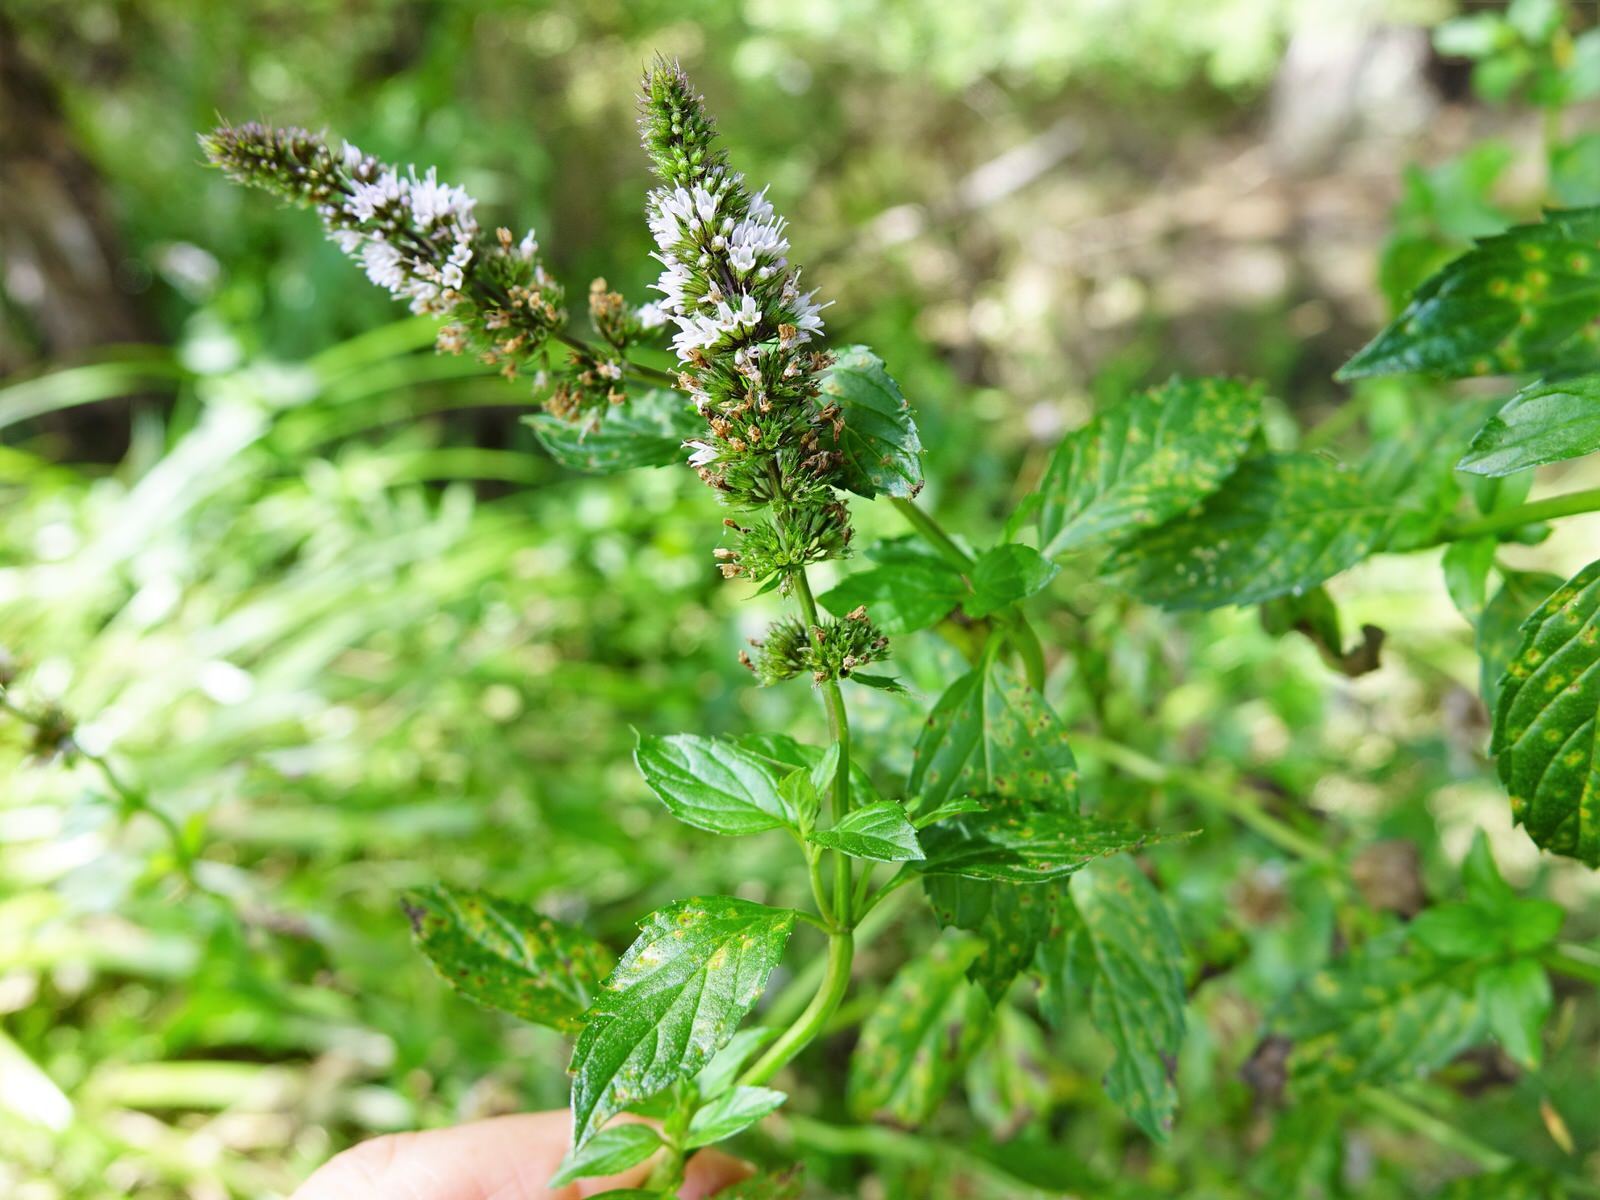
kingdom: Plantae
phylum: Tracheophyta
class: Magnoliopsida
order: Lamiales
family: Lamiaceae
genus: Mentha
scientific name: Mentha spicata
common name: Spearmint
